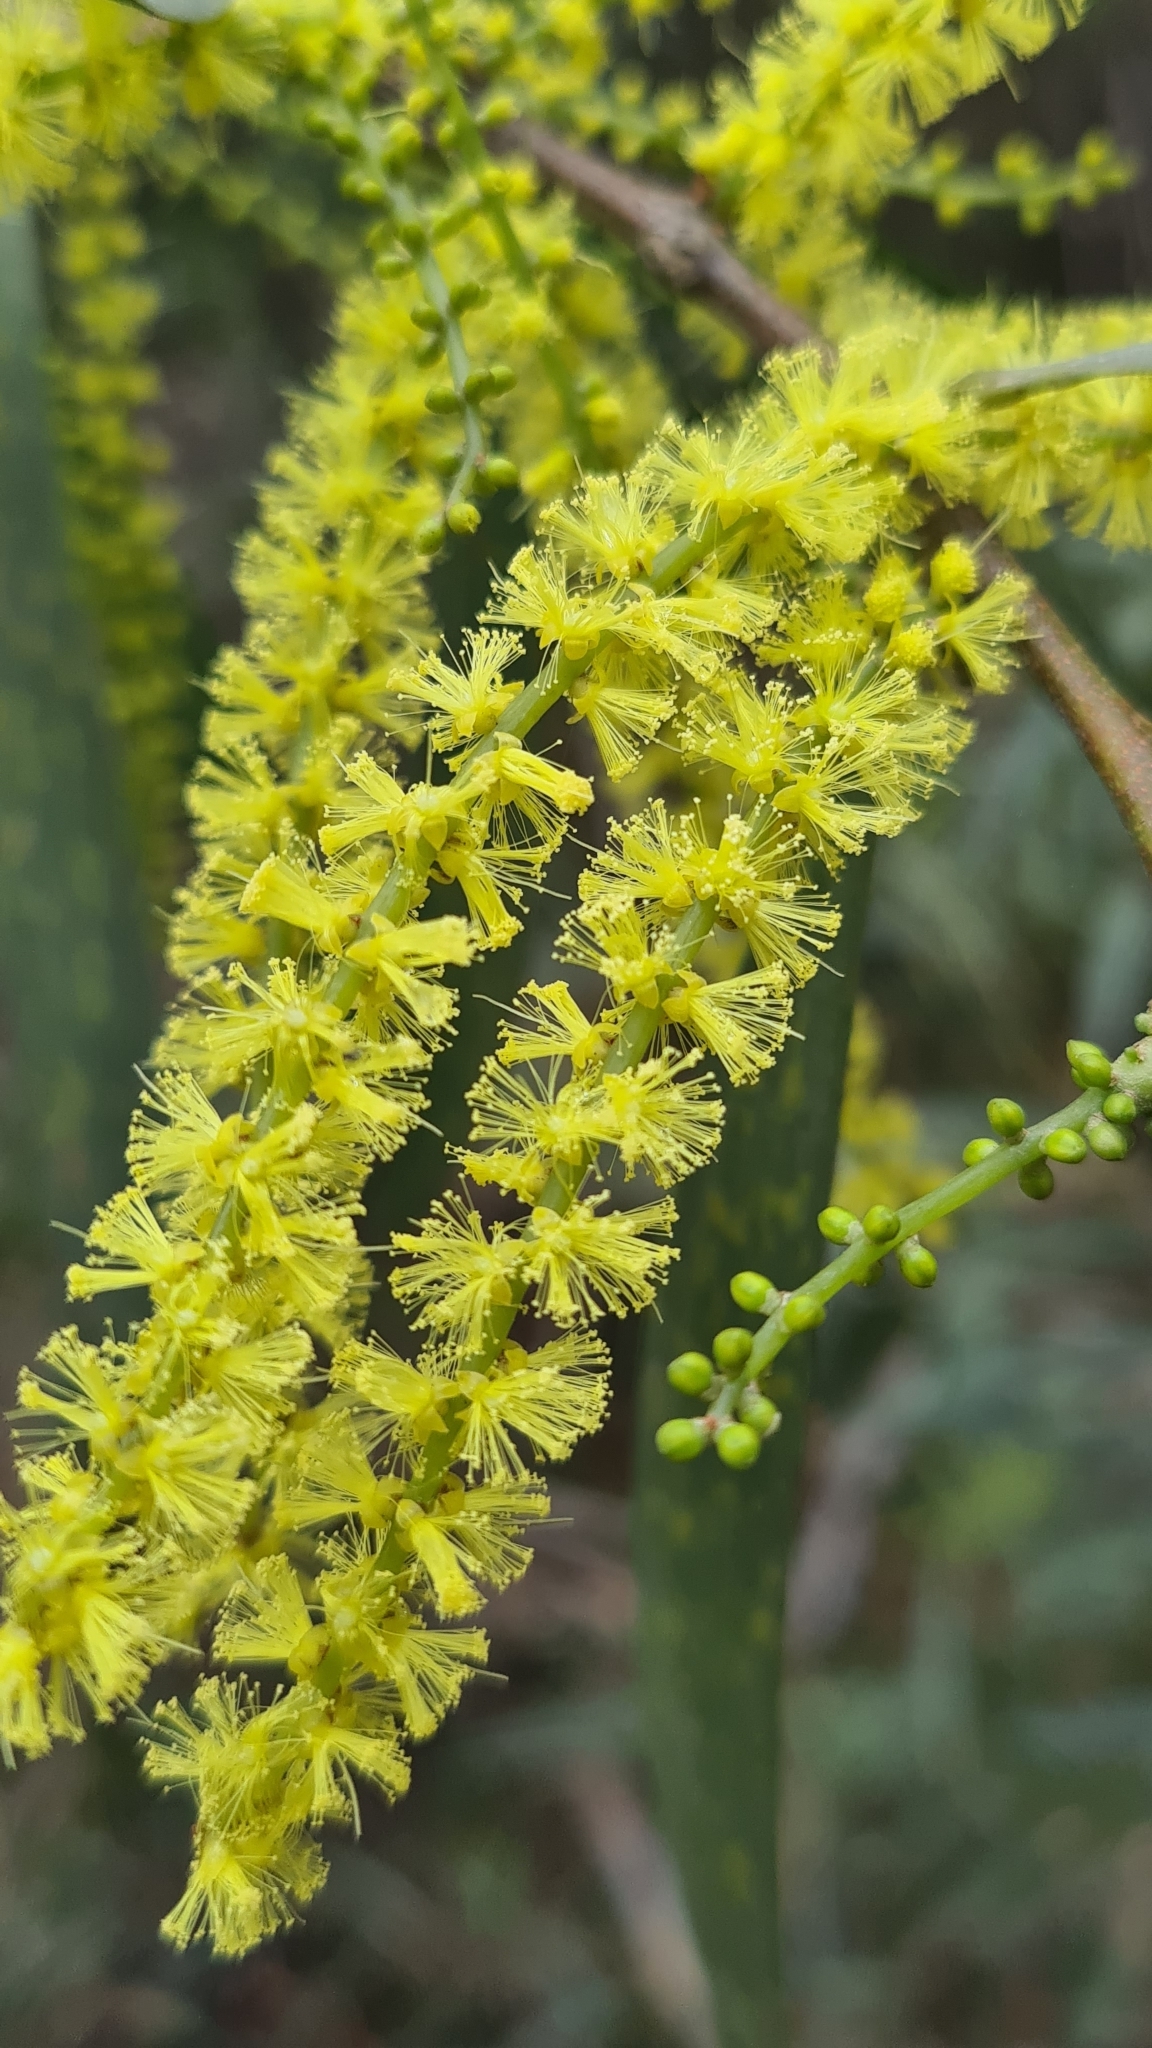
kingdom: Plantae
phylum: Tracheophyta
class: Magnoliopsida
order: Fabales
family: Fabaceae
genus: Acacia
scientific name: Acacia longifolia
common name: Sydney golden wattle
